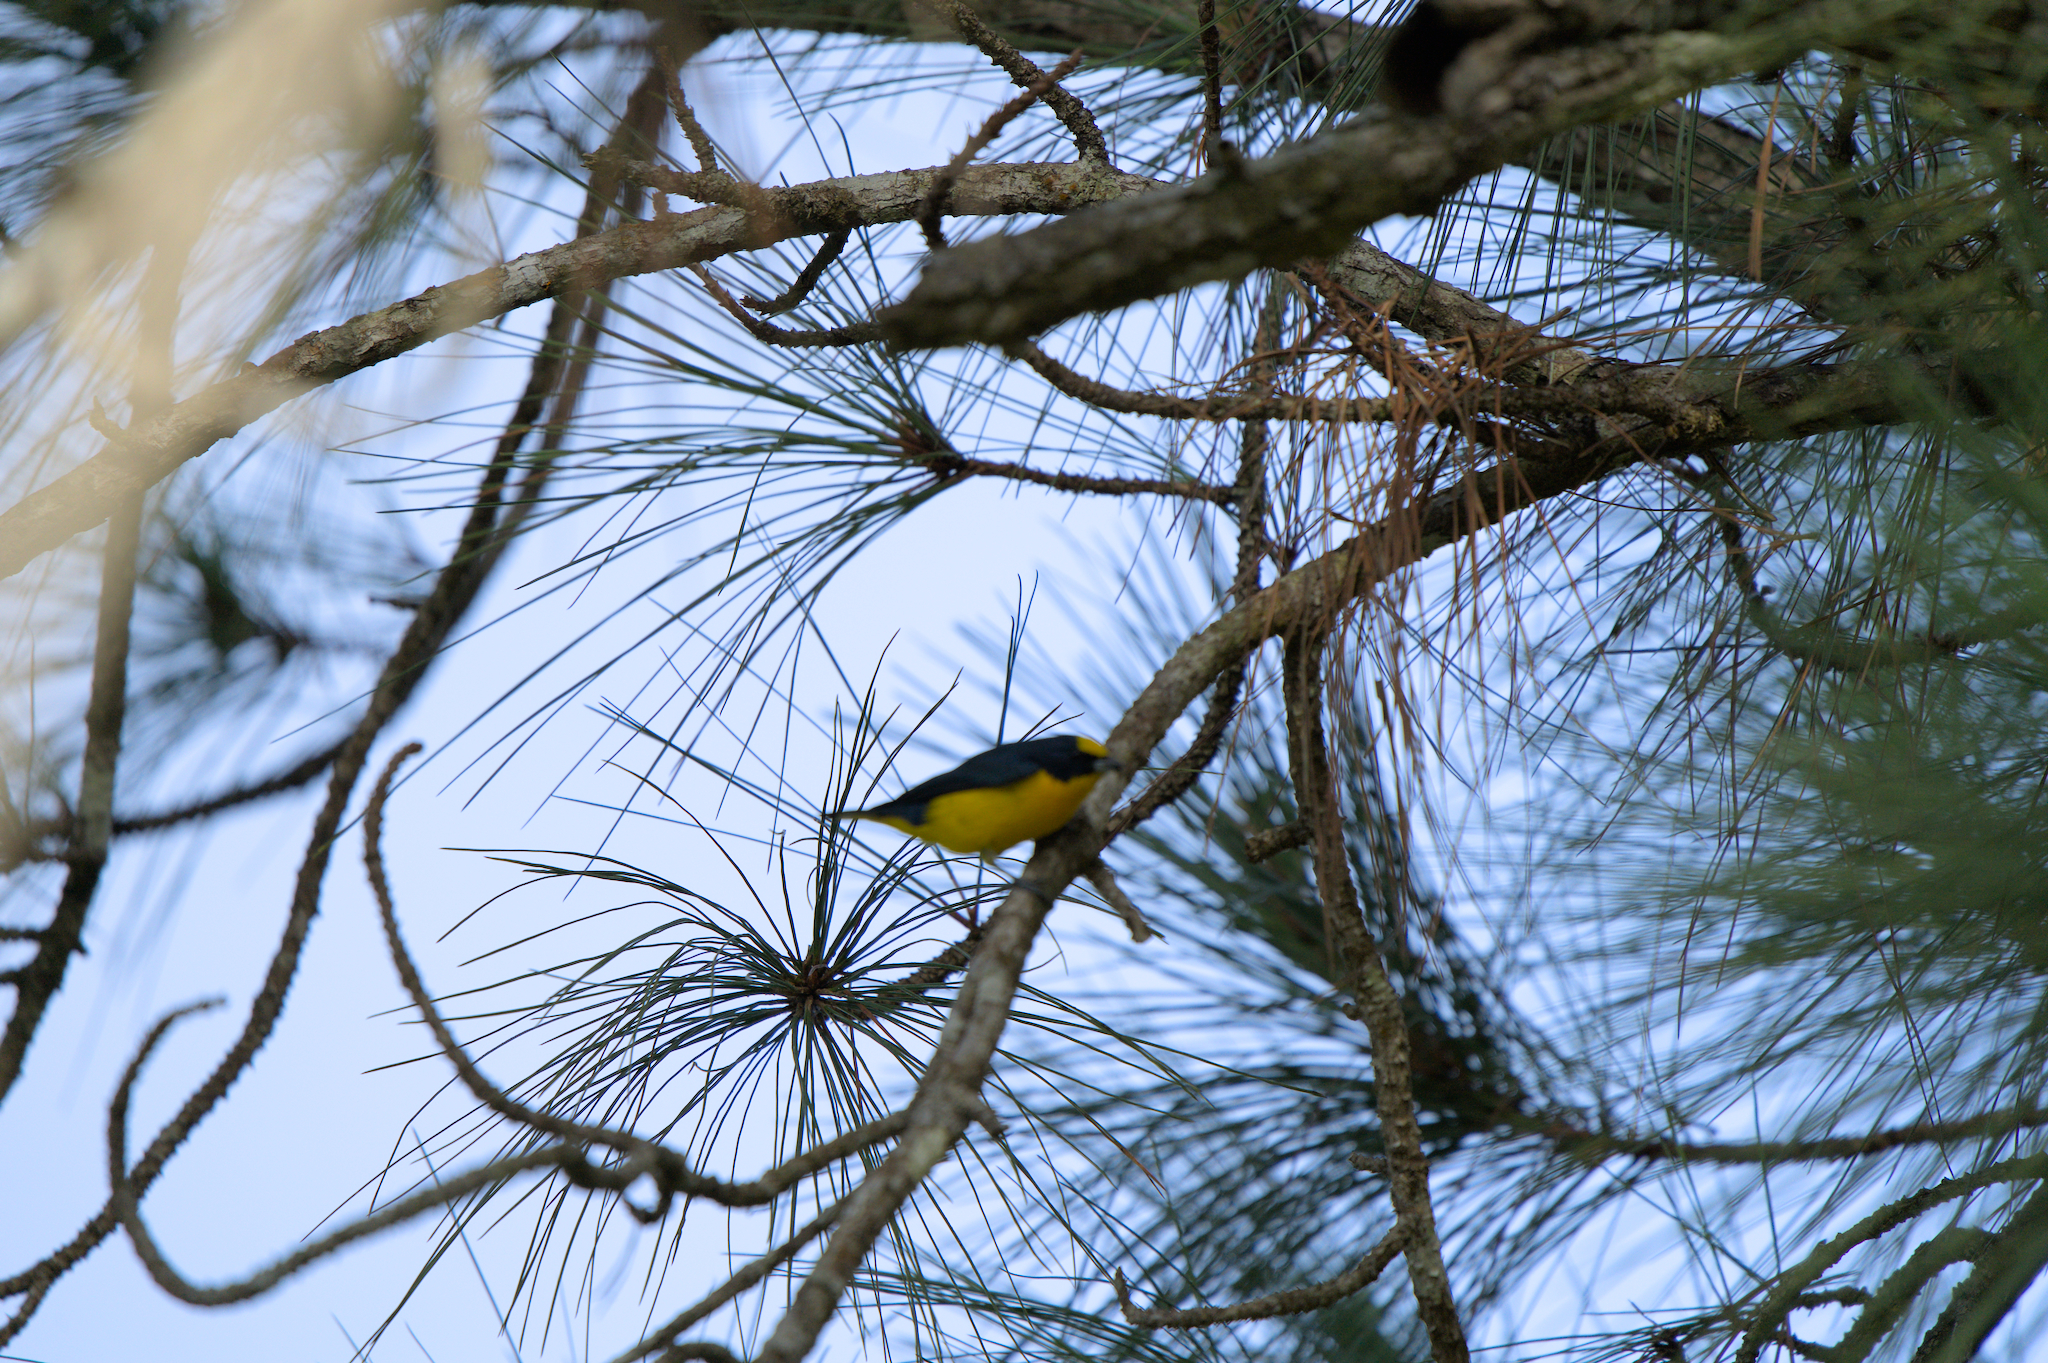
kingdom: Animalia
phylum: Chordata
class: Aves
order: Passeriformes
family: Fringillidae
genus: Euphonia
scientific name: Euphonia laniirostris
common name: Thick-billed euphonia
